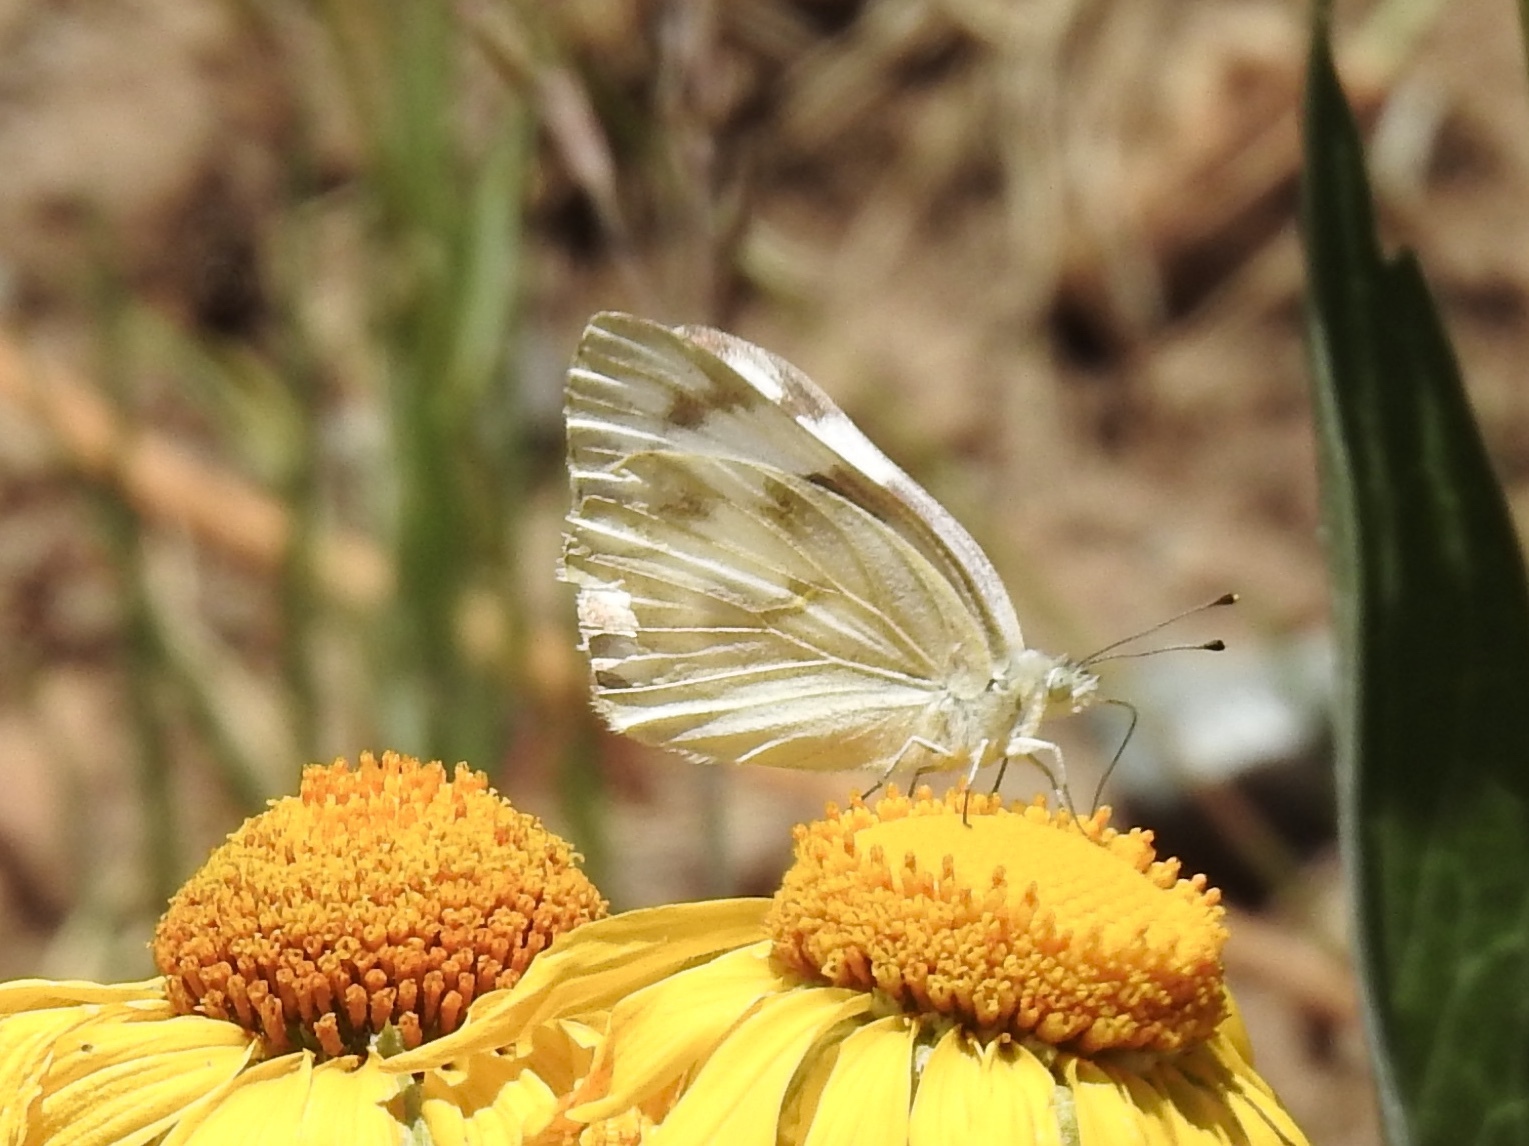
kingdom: Animalia
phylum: Arthropoda
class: Insecta
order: Lepidoptera
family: Pieridae
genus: Pontia
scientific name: Pontia protodice
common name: Checkered white
